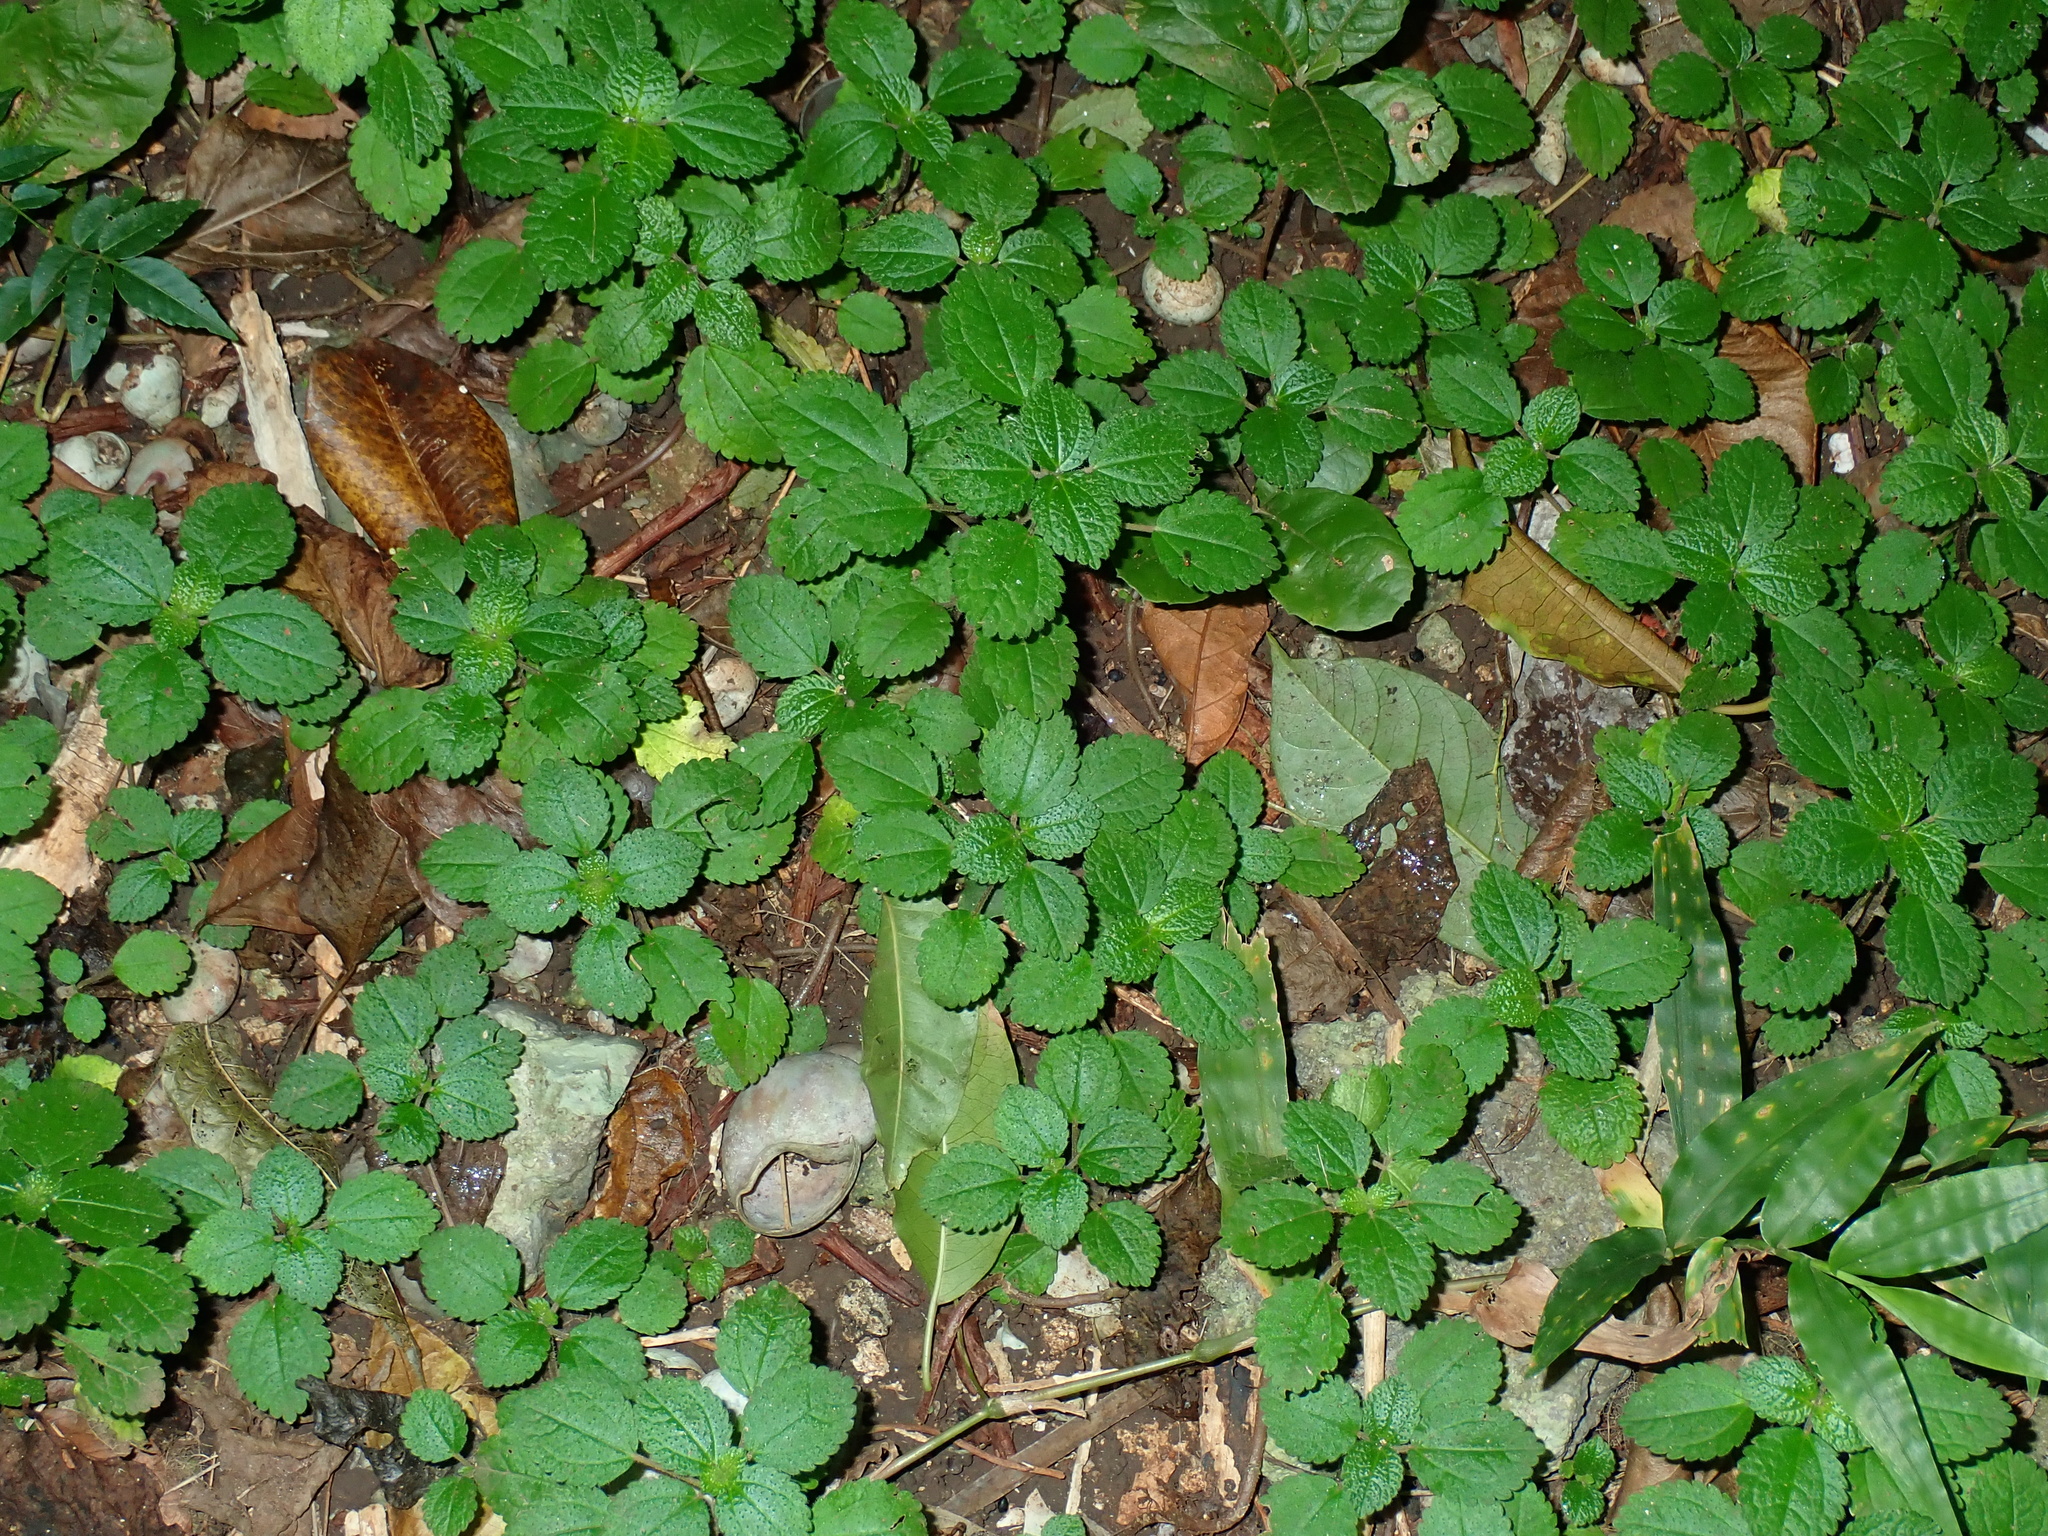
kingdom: Plantae
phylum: Tracheophyta
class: Magnoliopsida
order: Rosales
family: Urticaceae
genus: Pilea
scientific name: Pilea nummulariifolia
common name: Creeping-charlie
